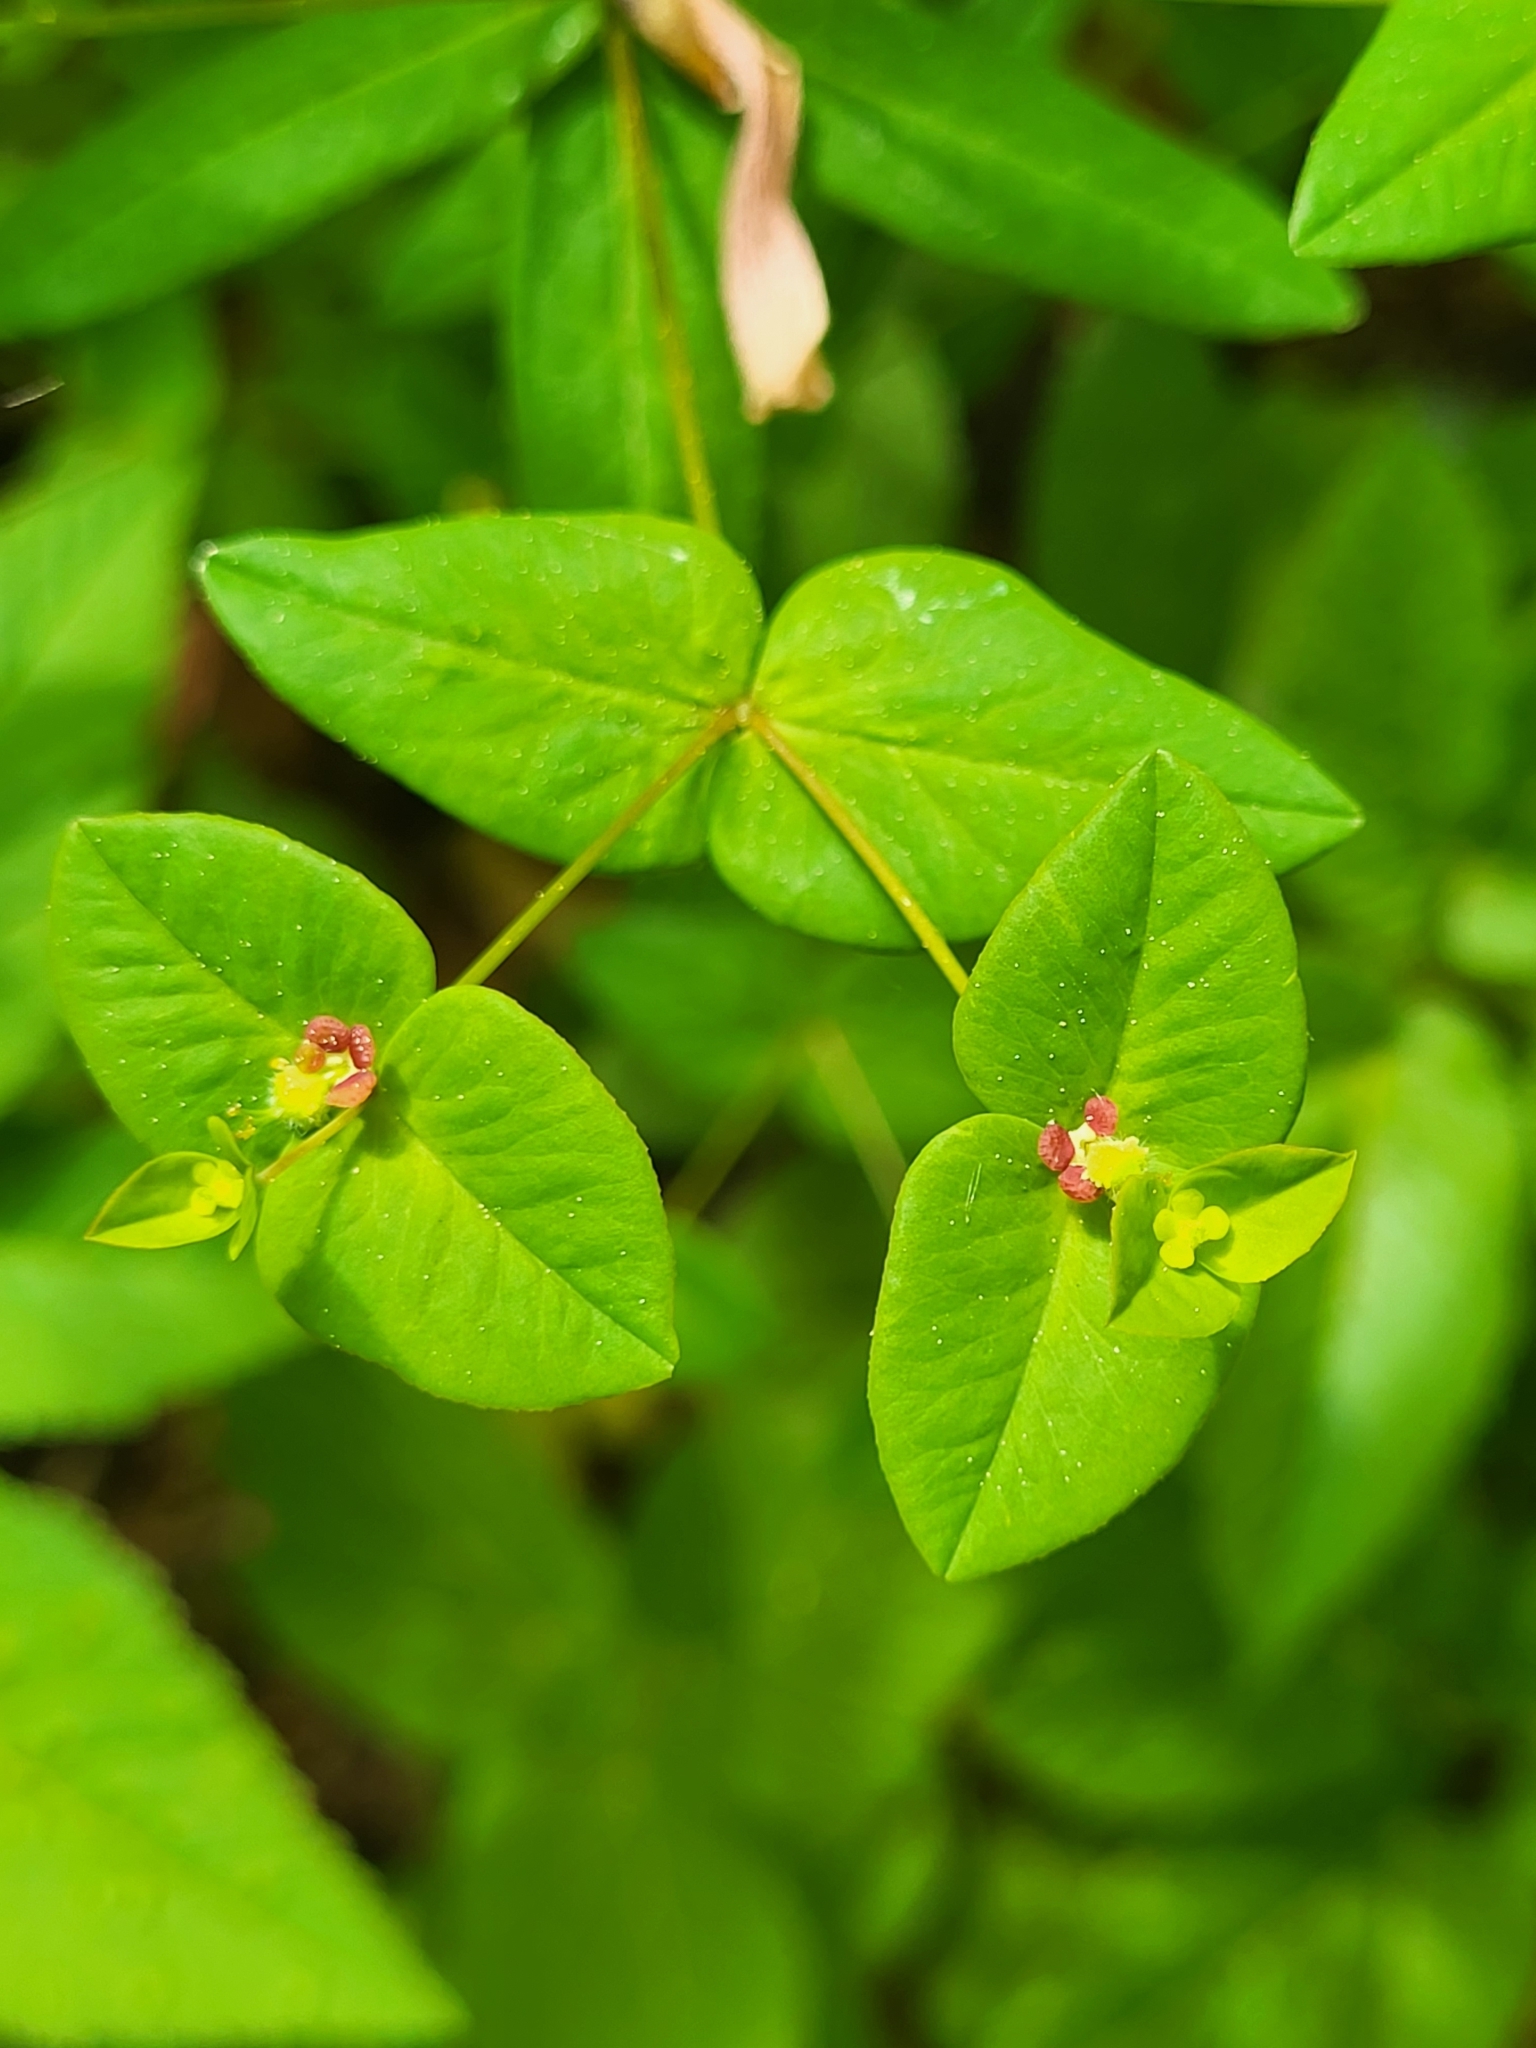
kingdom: Plantae
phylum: Tracheophyta
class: Magnoliopsida
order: Malpighiales
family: Euphorbiaceae
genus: Euphorbia
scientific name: Euphorbia dulcis
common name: Sweet spurge
